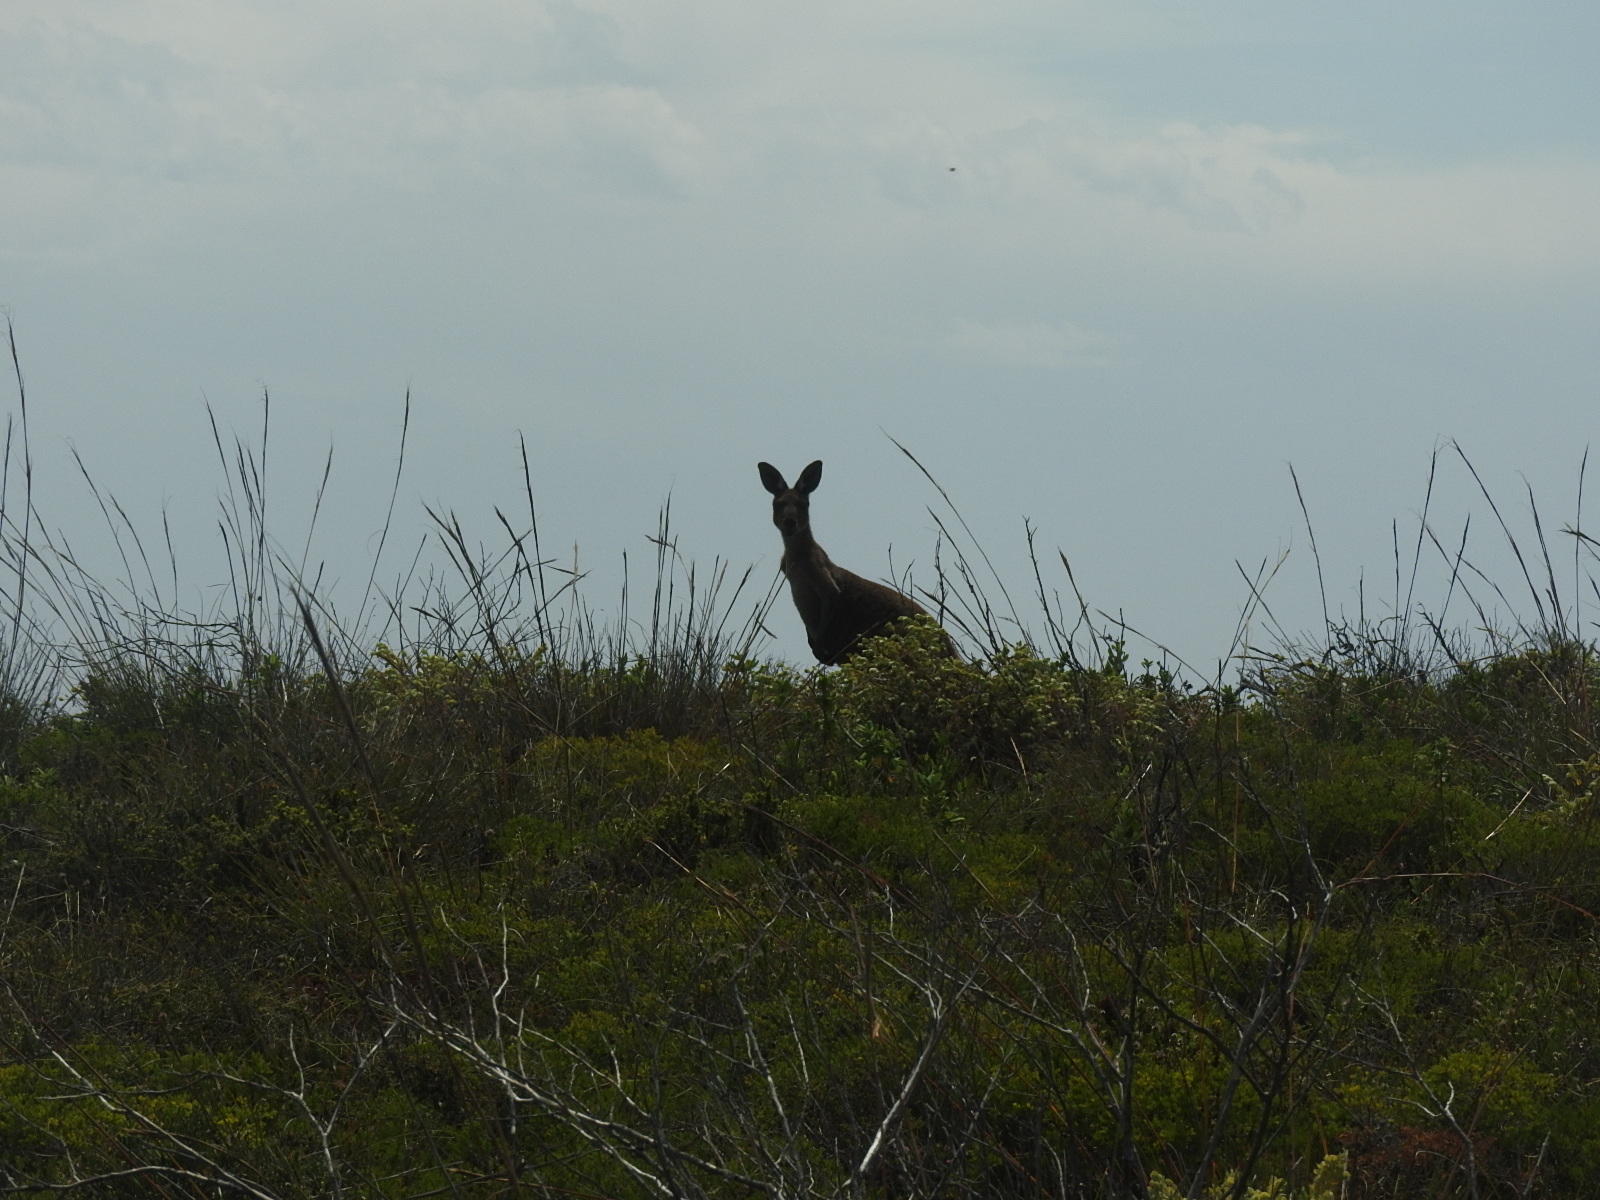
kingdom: Animalia
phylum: Chordata
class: Mammalia
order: Diprotodontia
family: Macropodidae
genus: Macropus
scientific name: Macropus fuliginosus
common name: Western grey kangaroo
